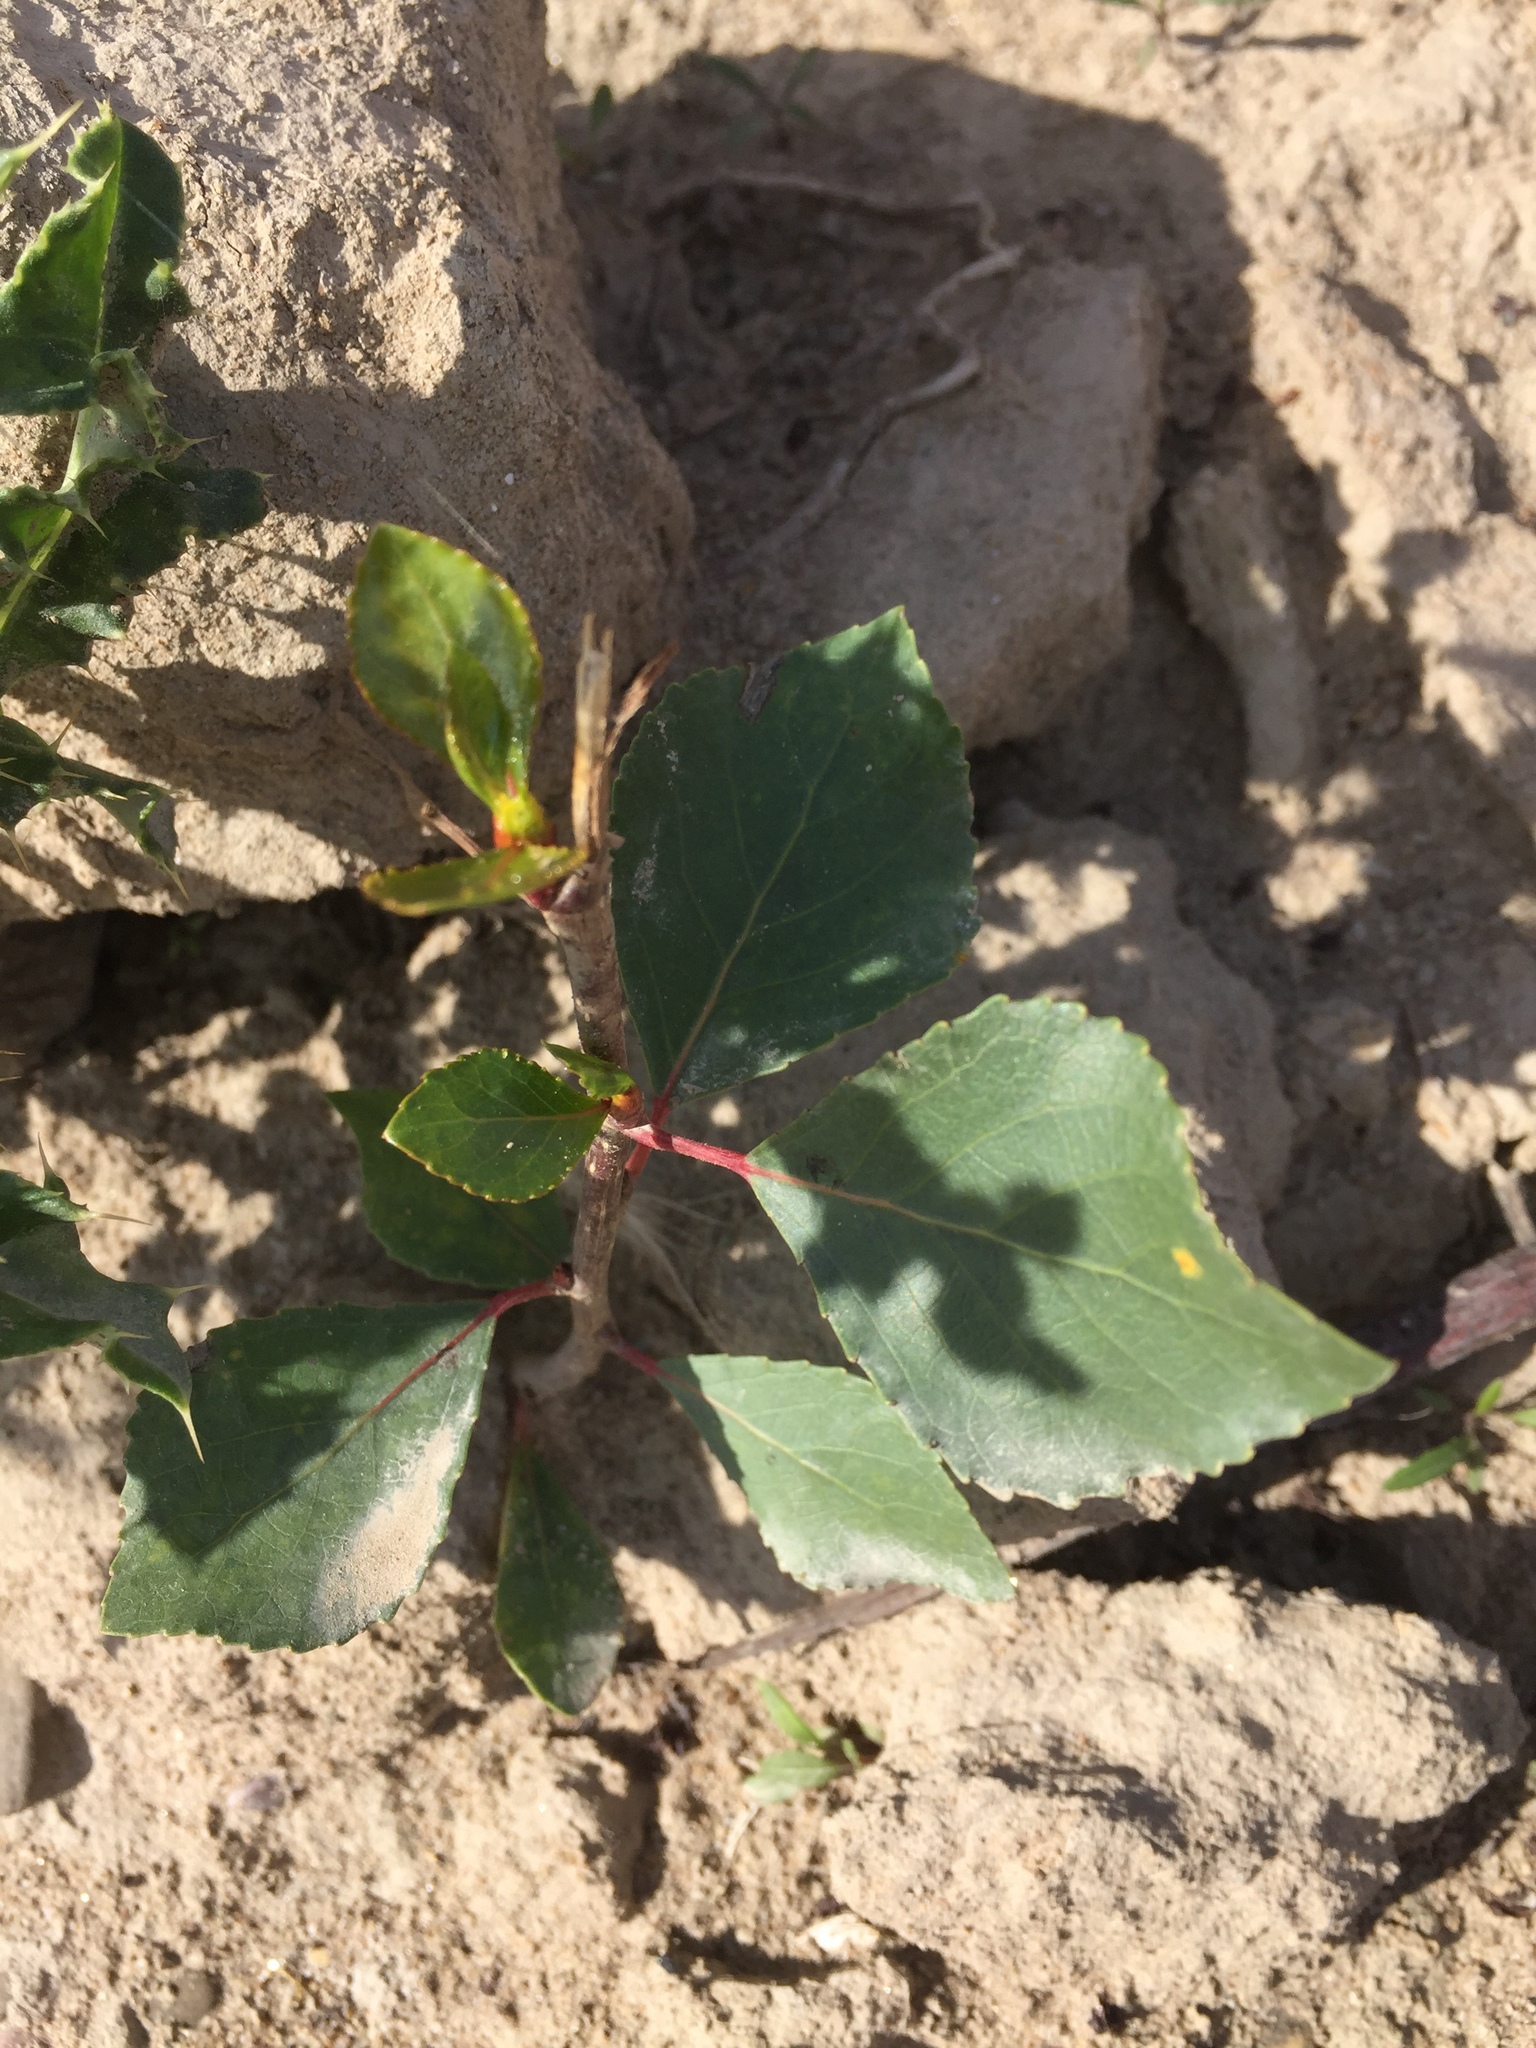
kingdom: Plantae
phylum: Tracheophyta
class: Magnoliopsida
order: Malpighiales
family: Salicaceae
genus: Populus
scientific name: Populus nigra
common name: Black poplar
